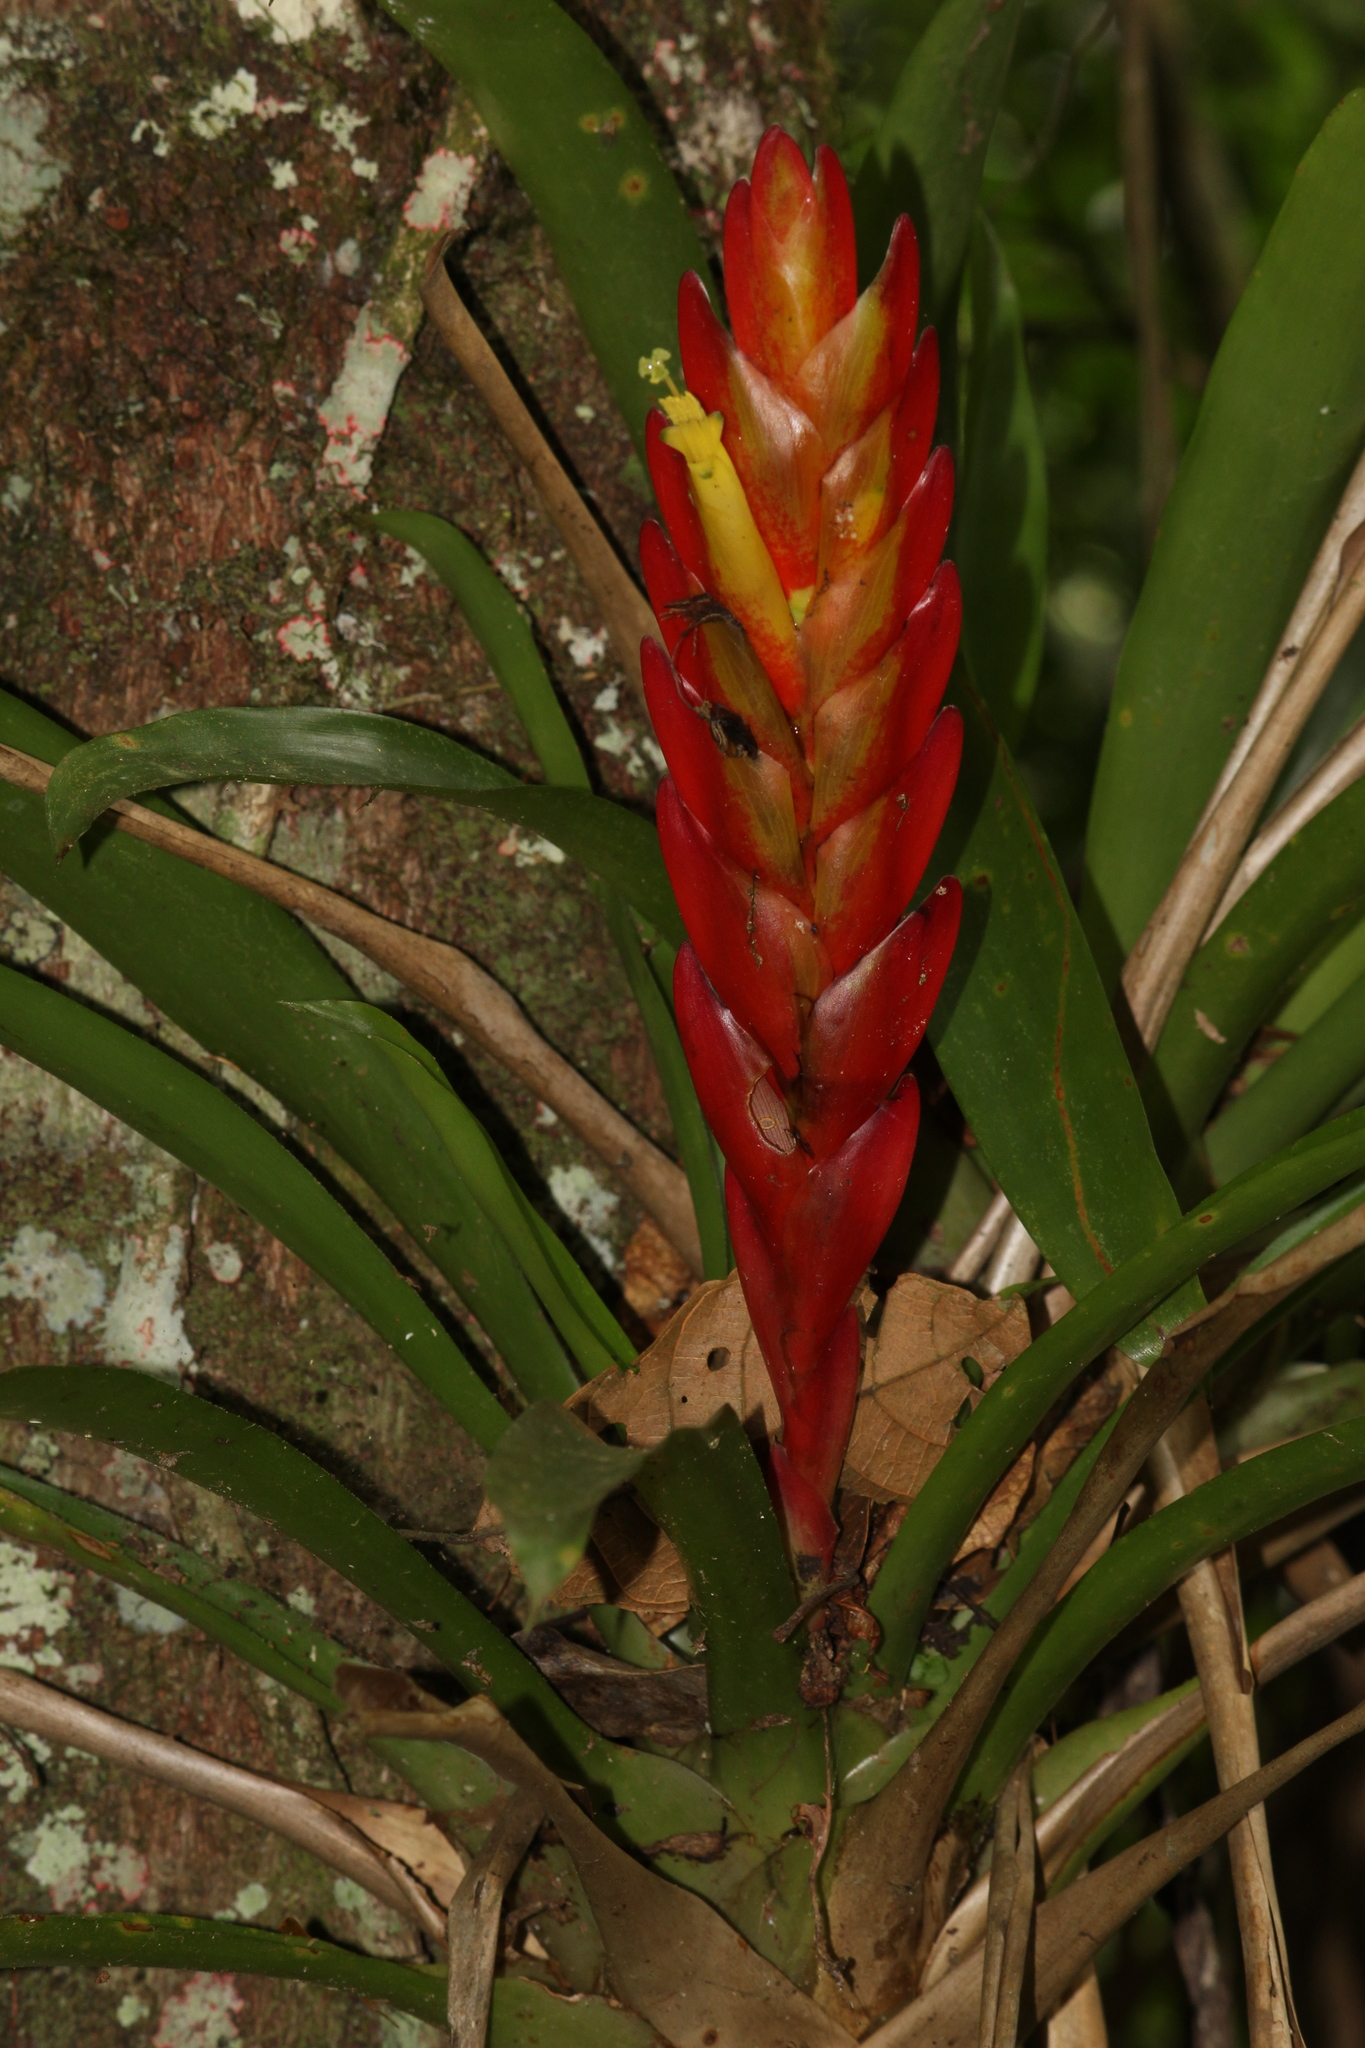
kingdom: Plantae
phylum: Tracheophyta
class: Liliopsida
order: Poales
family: Bromeliaceae
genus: Vriesea
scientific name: Vriesea incurvata
